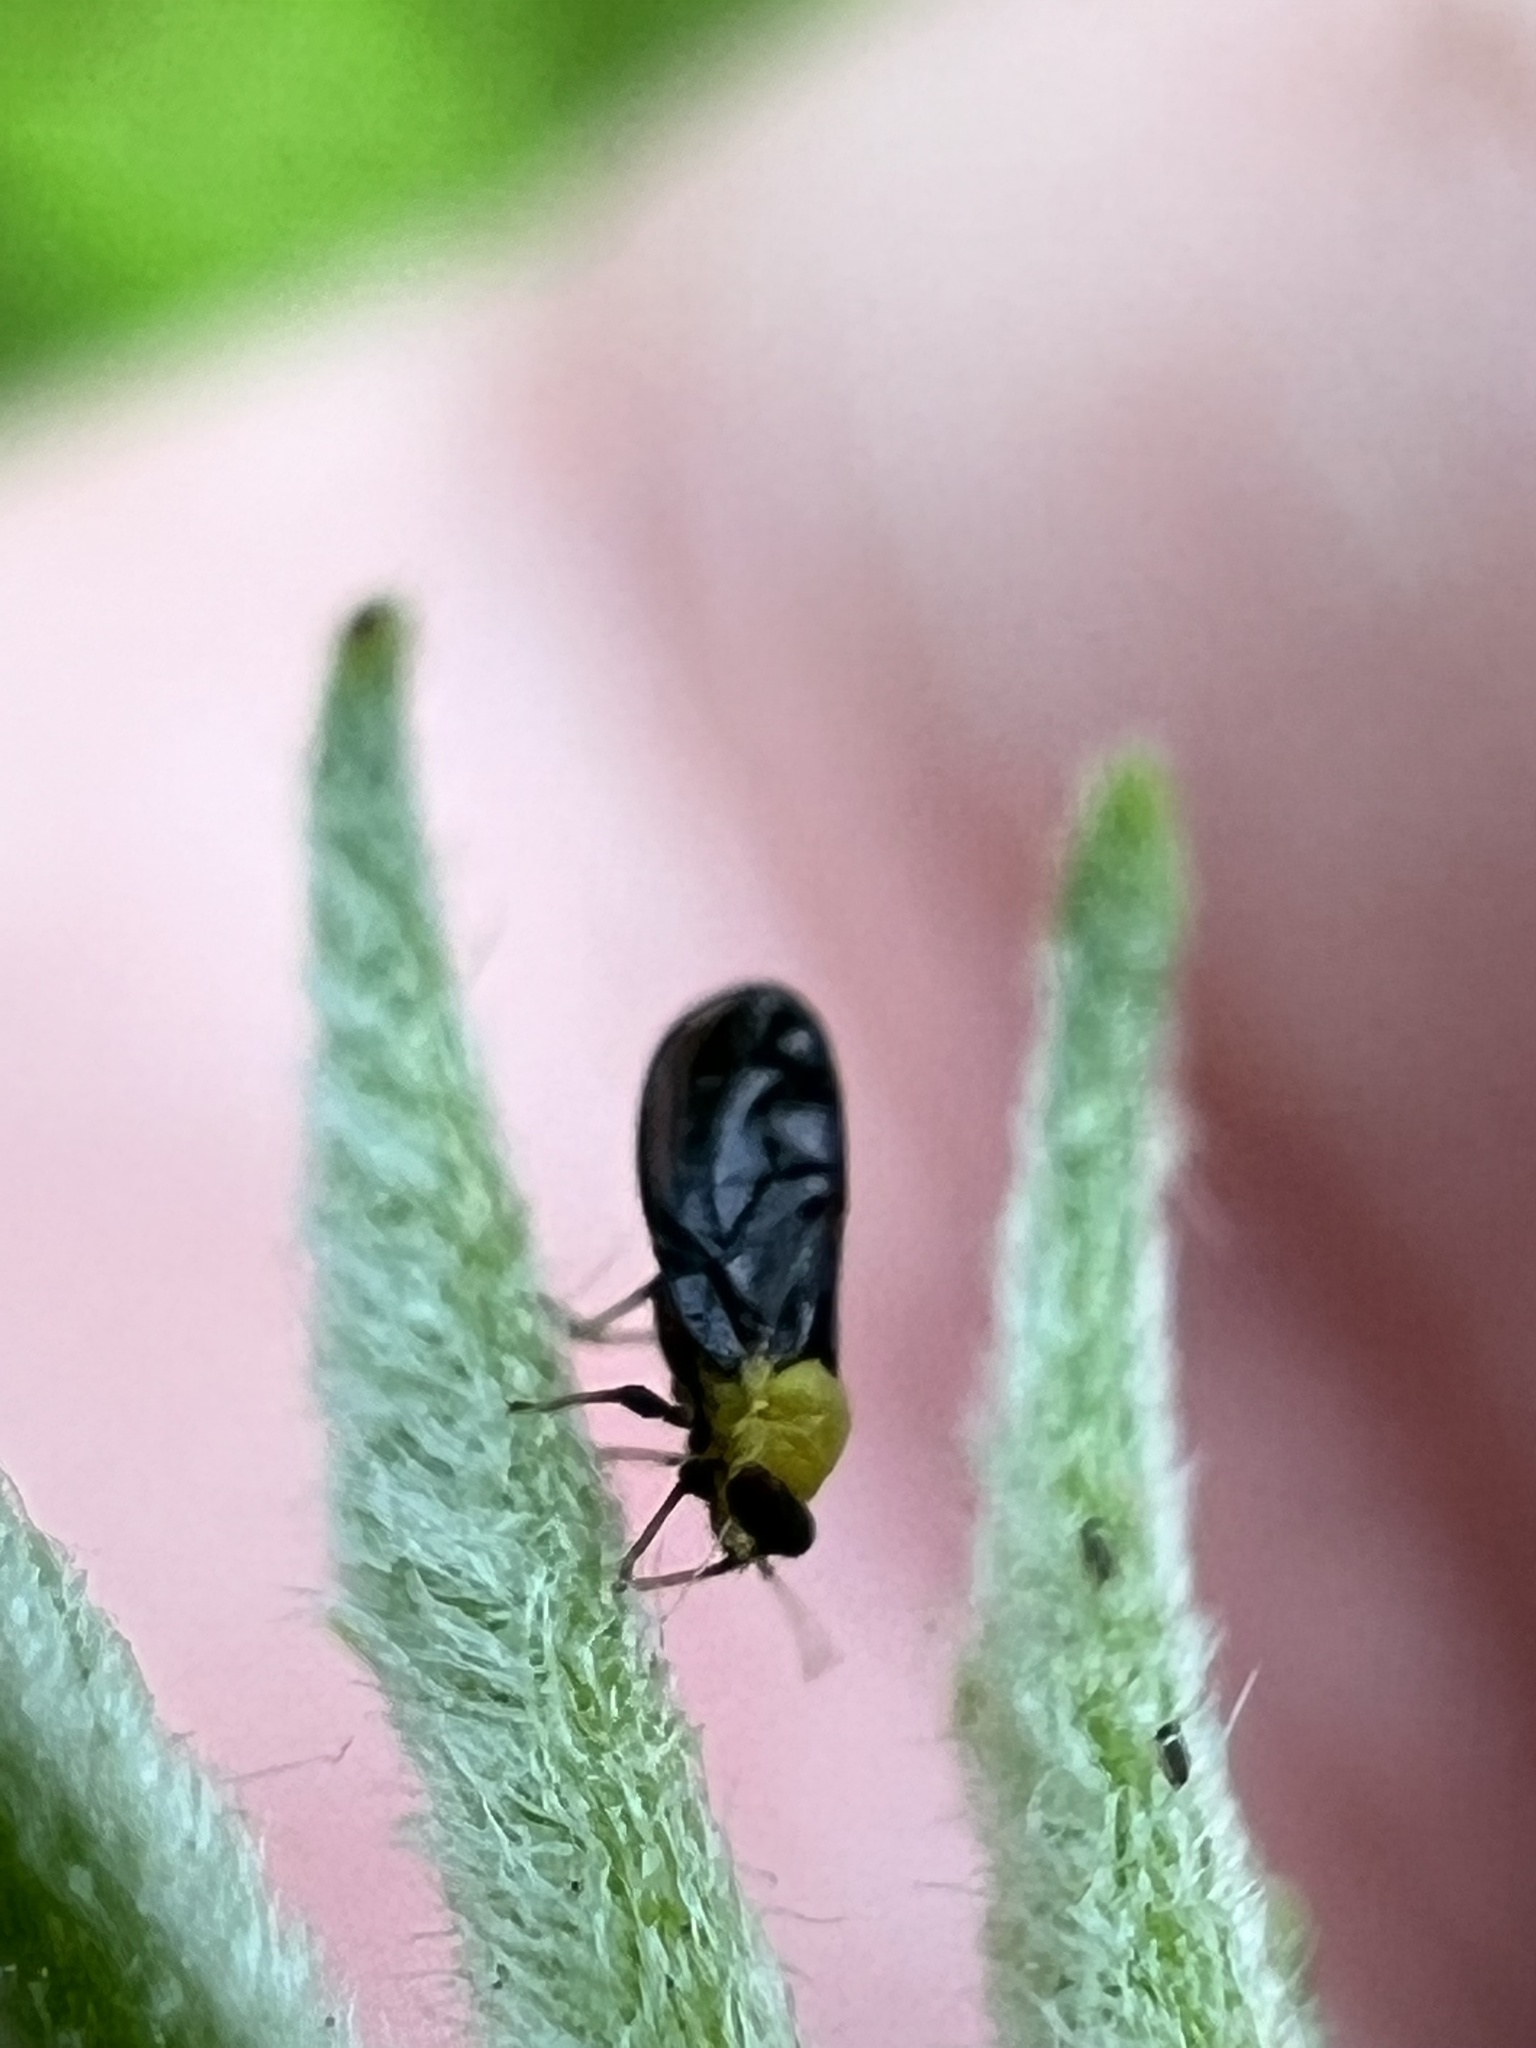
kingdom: Animalia
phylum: Arthropoda
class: Insecta
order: Hemiptera
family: Calophyidae
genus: Calophya
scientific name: Calophya nigripennis
